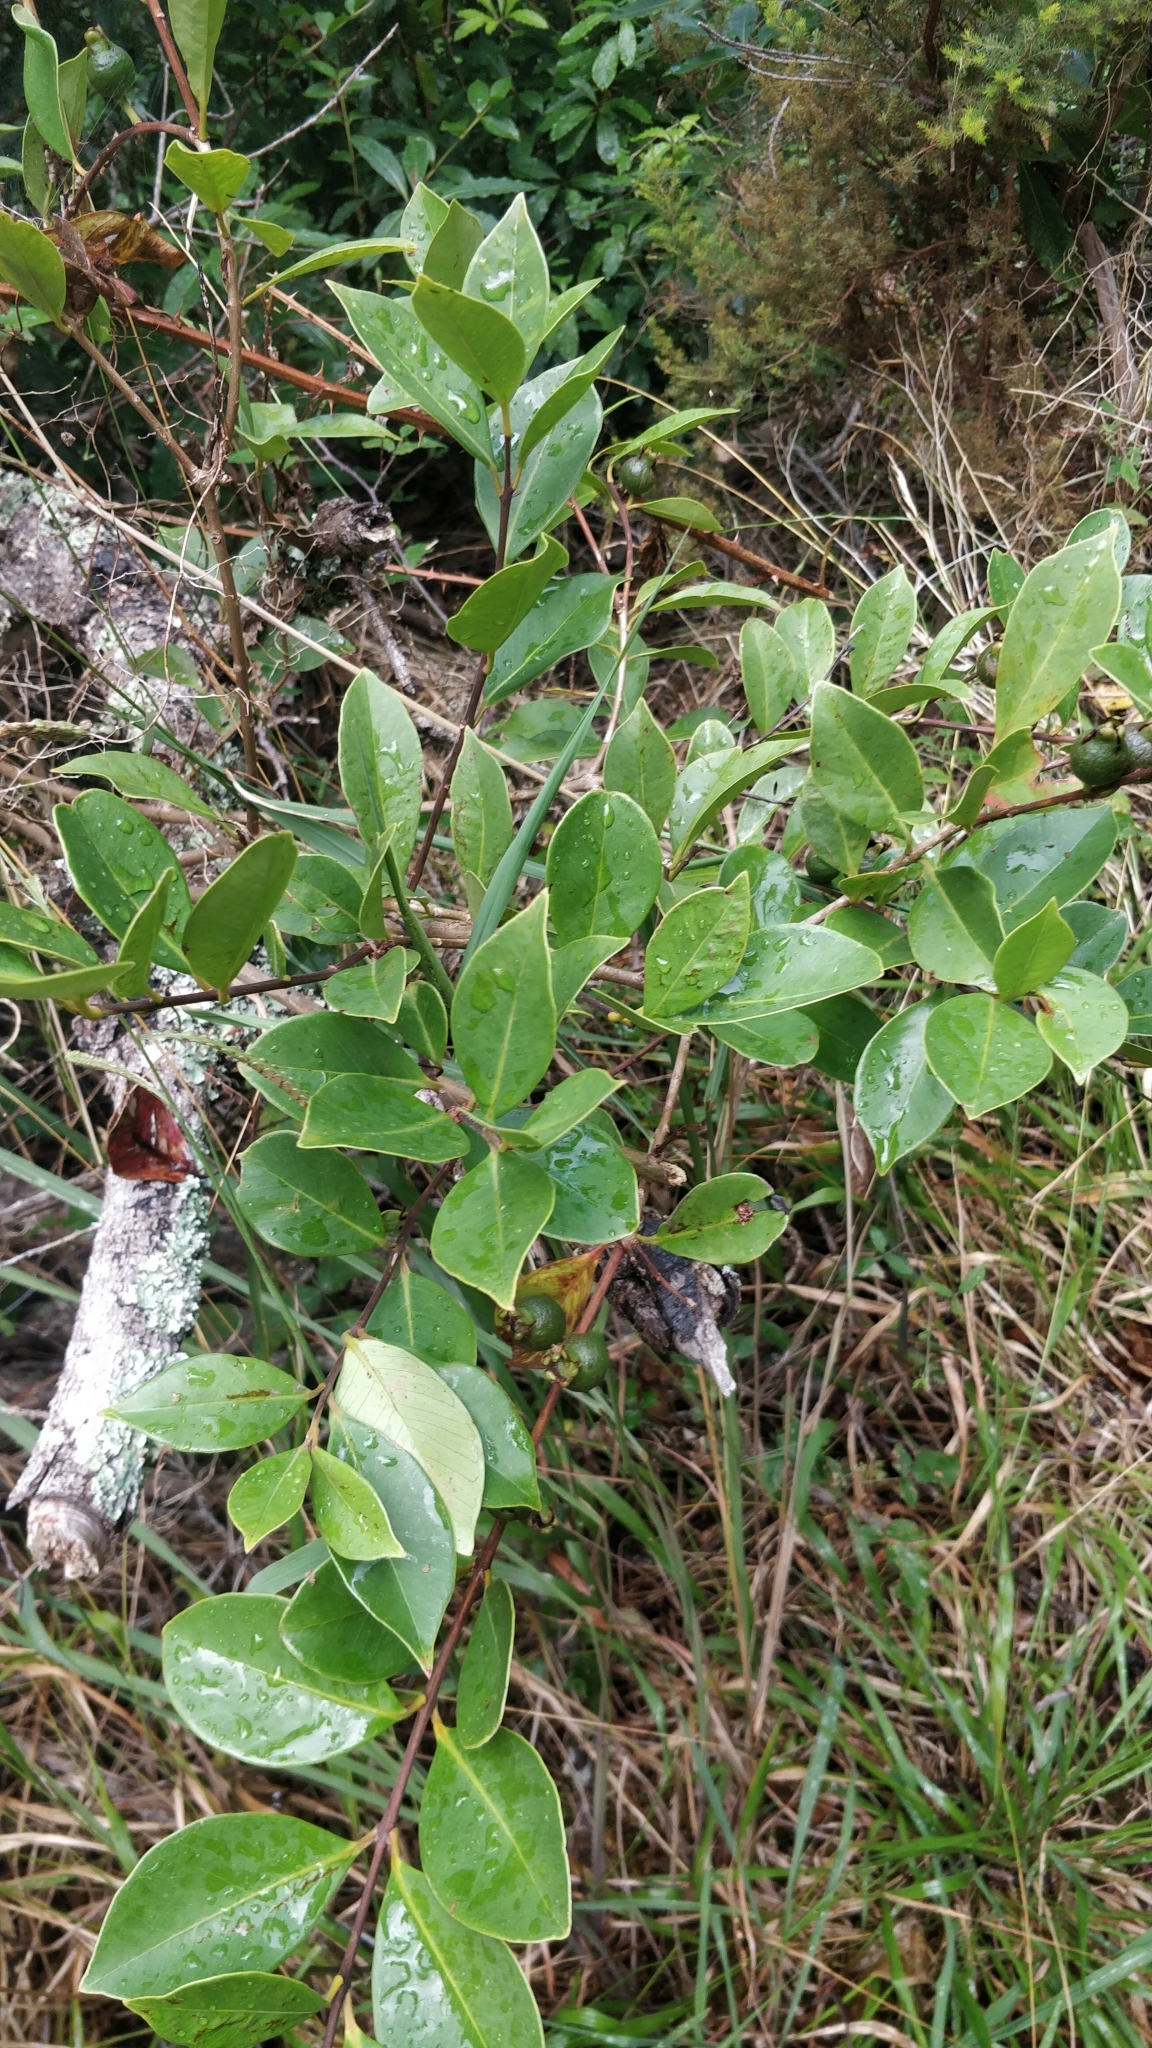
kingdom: Plantae
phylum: Tracheophyta
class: Magnoliopsida
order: Myrtales
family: Myrtaceae
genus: Psidium
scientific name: Psidium cattleianum
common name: Strawberry guava
